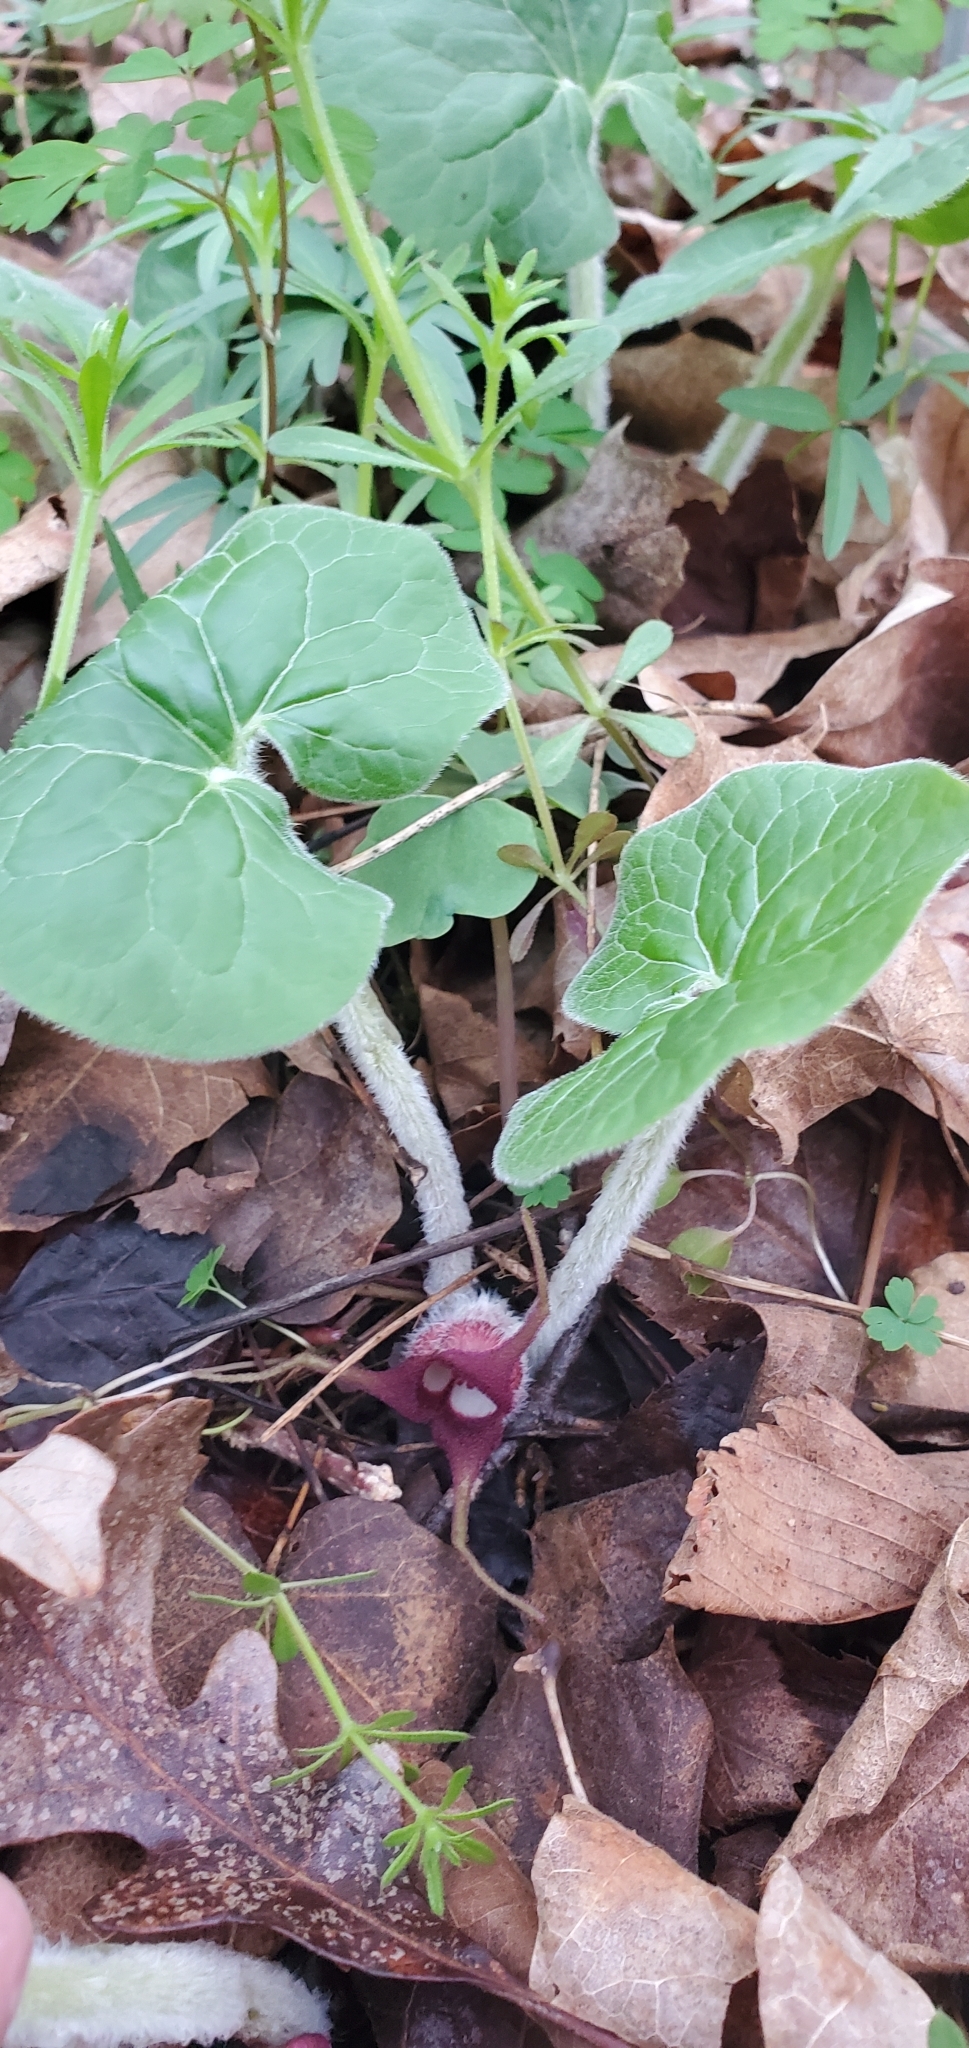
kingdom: Plantae
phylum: Tracheophyta
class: Magnoliopsida
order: Piperales
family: Aristolochiaceae
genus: Asarum
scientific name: Asarum canadense
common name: Wild ginger
